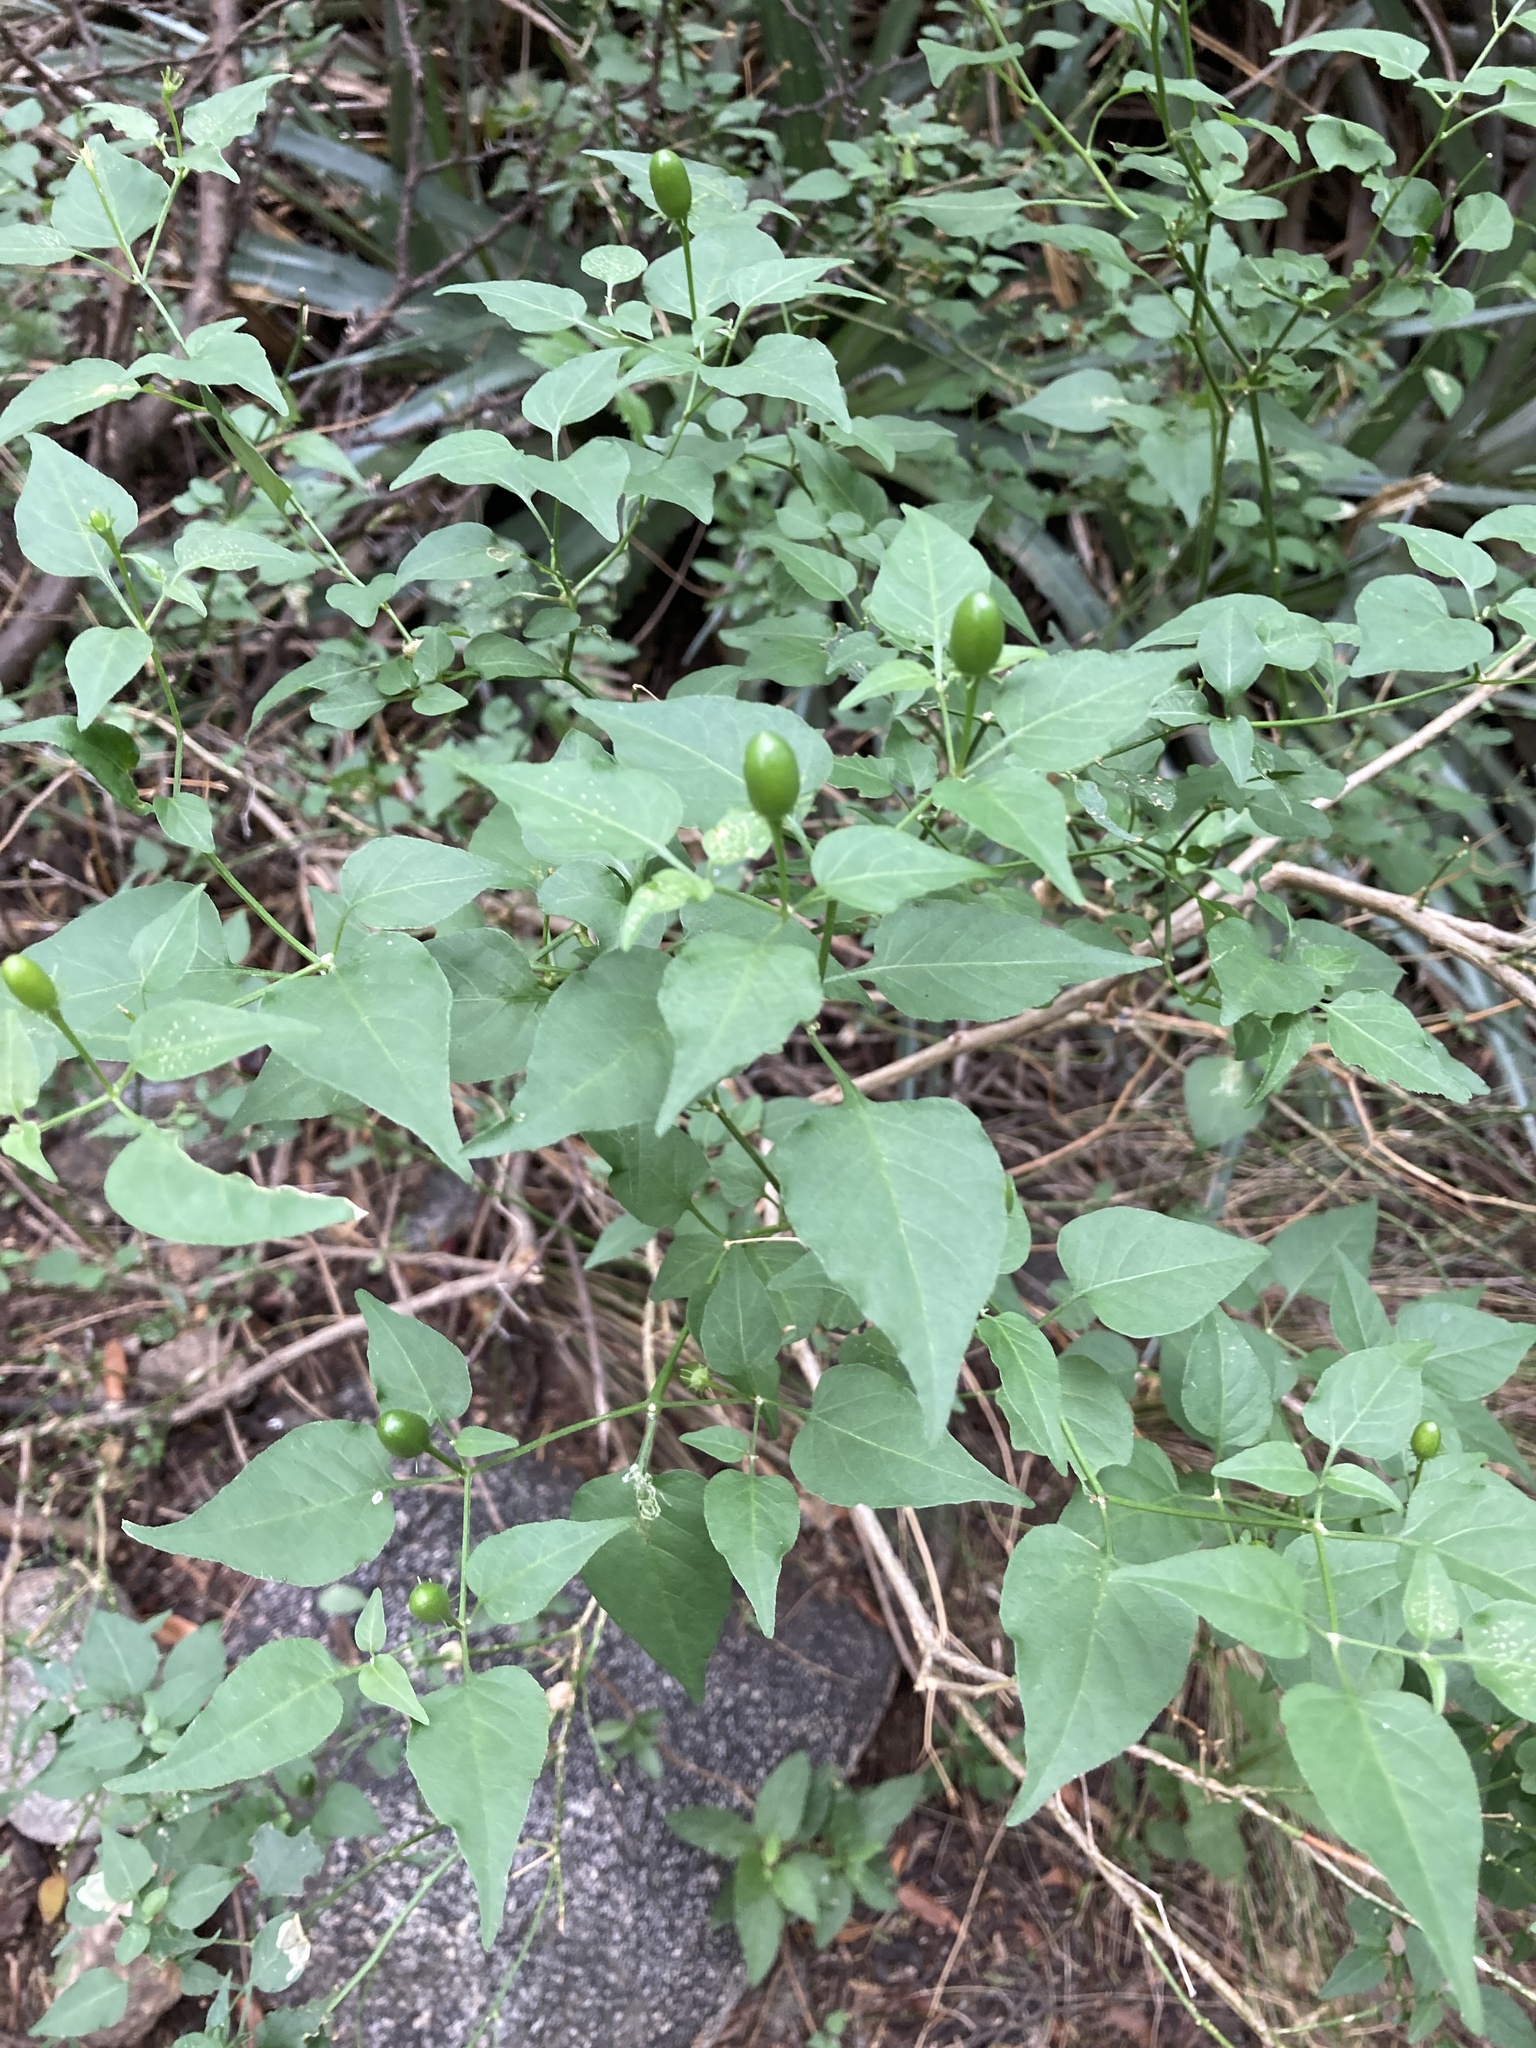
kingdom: Plantae
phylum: Tracheophyta
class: Magnoliopsida
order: Solanales
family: Solanaceae
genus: Capsicum
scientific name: Capsicum chacoense
